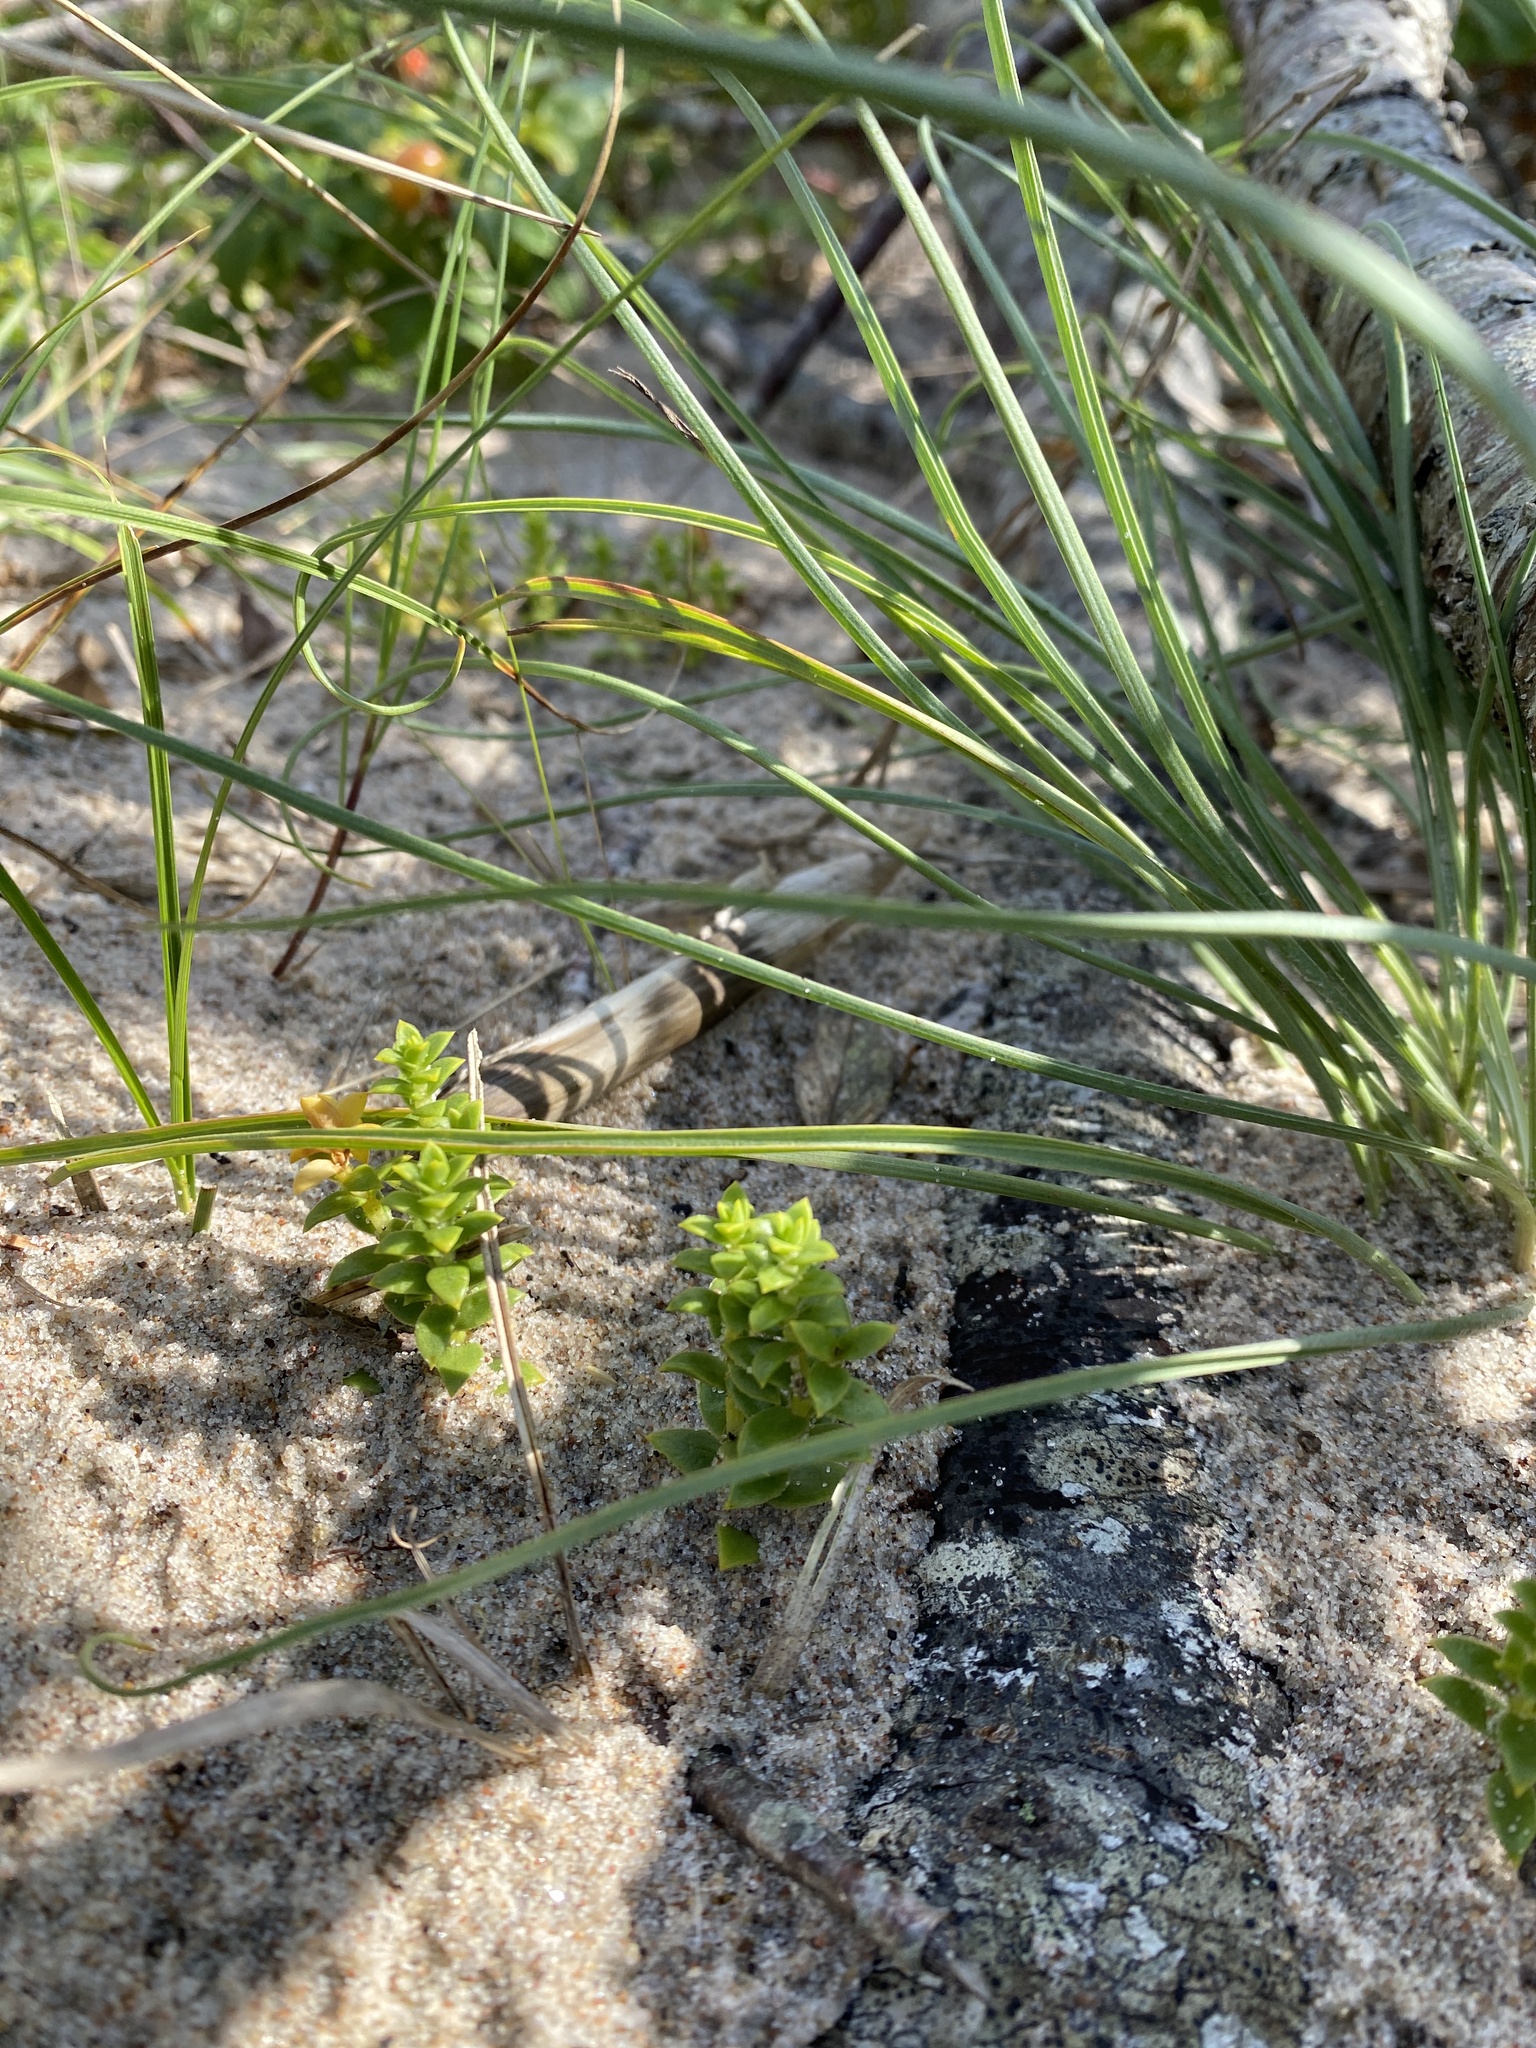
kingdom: Plantae
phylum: Tracheophyta
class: Magnoliopsida
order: Caryophyllales
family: Caryophyllaceae
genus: Honckenya
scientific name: Honckenya peploides
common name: Sea sandwort
